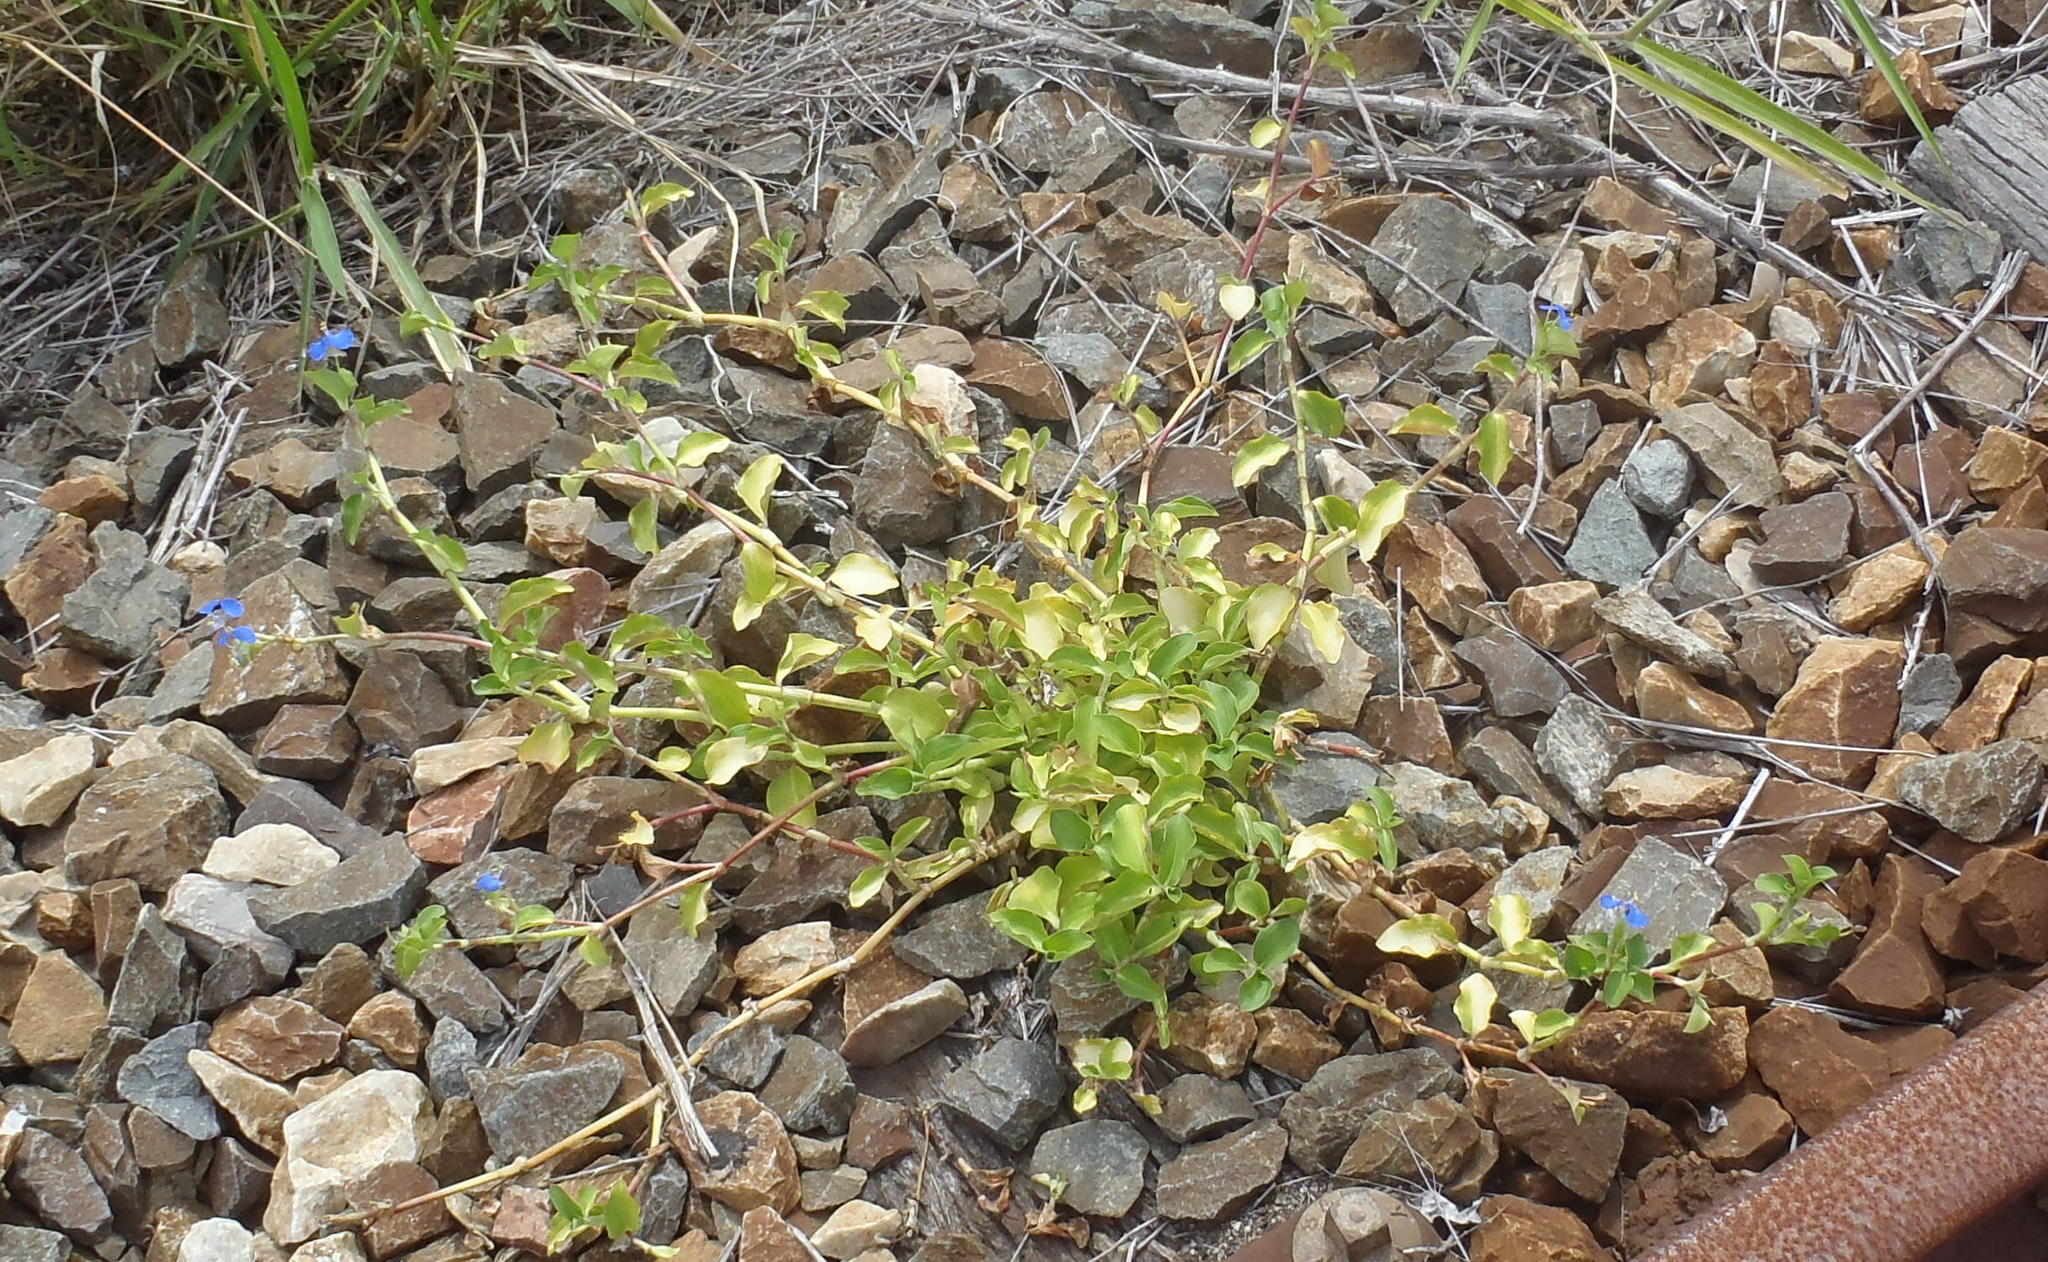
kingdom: Plantae
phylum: Tracheophyta
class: Liliopsida
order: Commelinales
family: Commelinaceae
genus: Commelina
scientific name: Commelina benghalensis
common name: Jio
